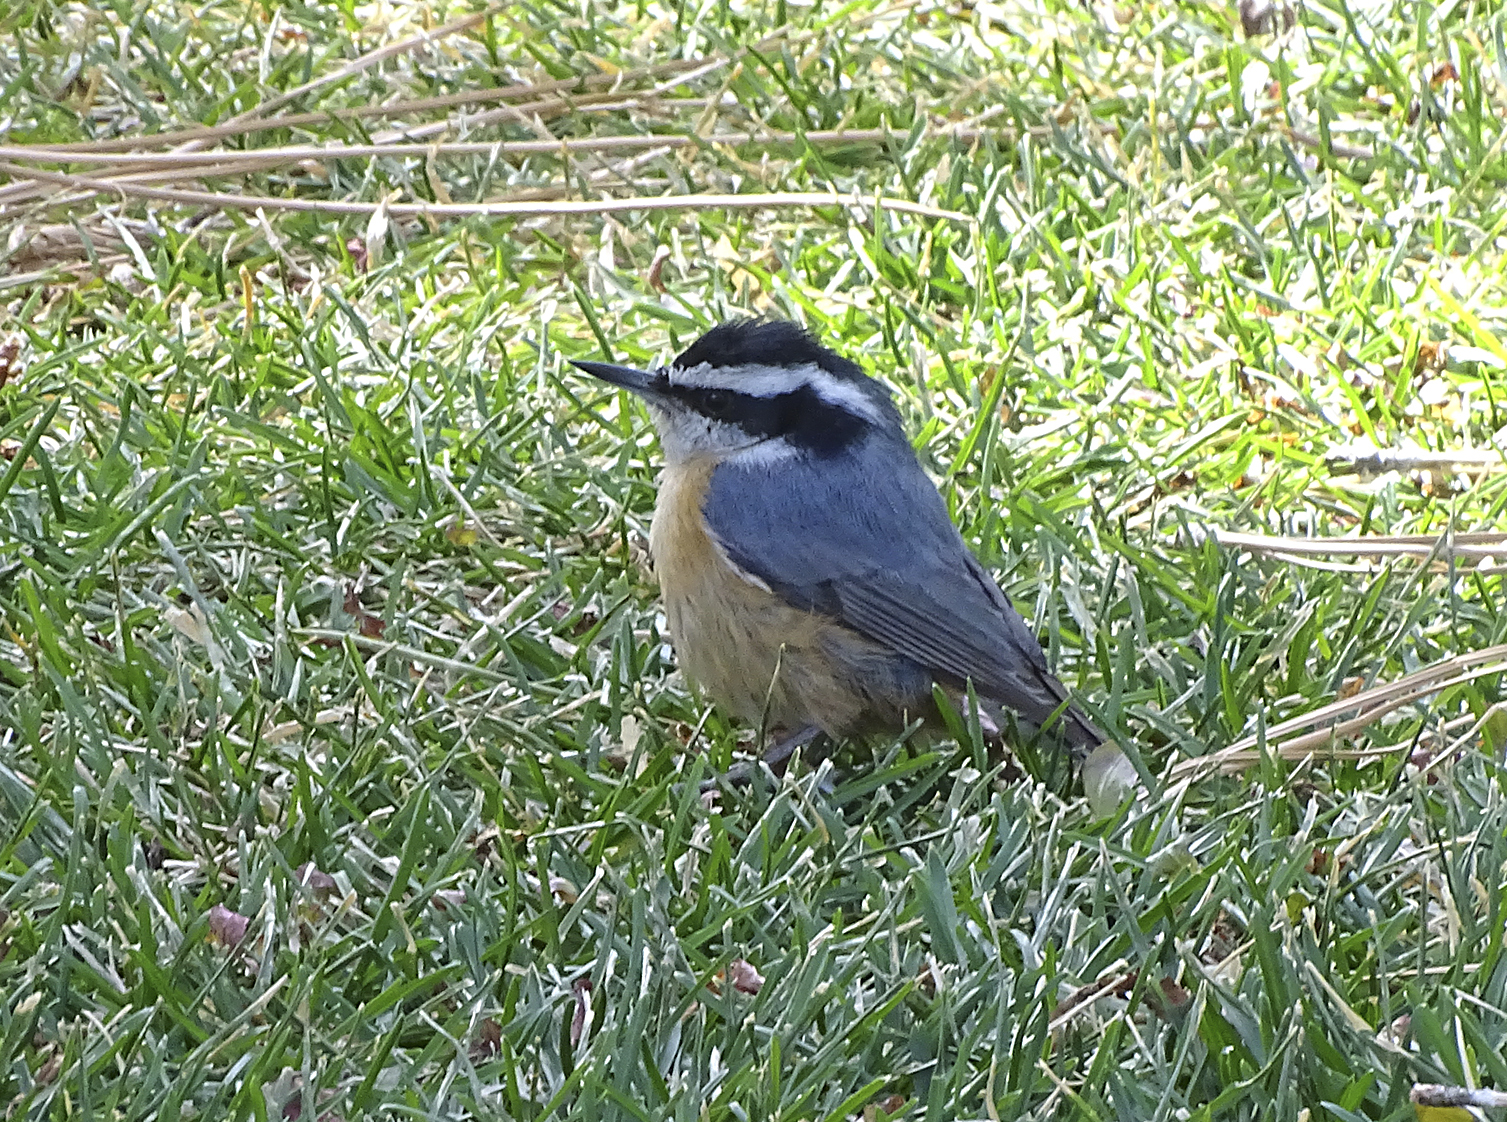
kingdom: Animalia
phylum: Chordata
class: Aves
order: Passeriformes
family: Sittidae
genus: Sitta
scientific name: Sitta canadensis
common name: Red-breasted nuthatch
